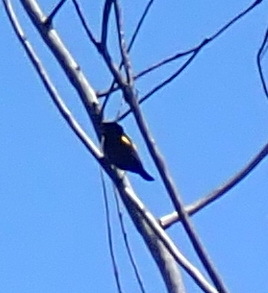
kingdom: Animalia
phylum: Chordata
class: Aves
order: Passeriformes
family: Ploceidae
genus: Euplectes
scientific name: Euplectes capensis
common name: Yellow bishop
